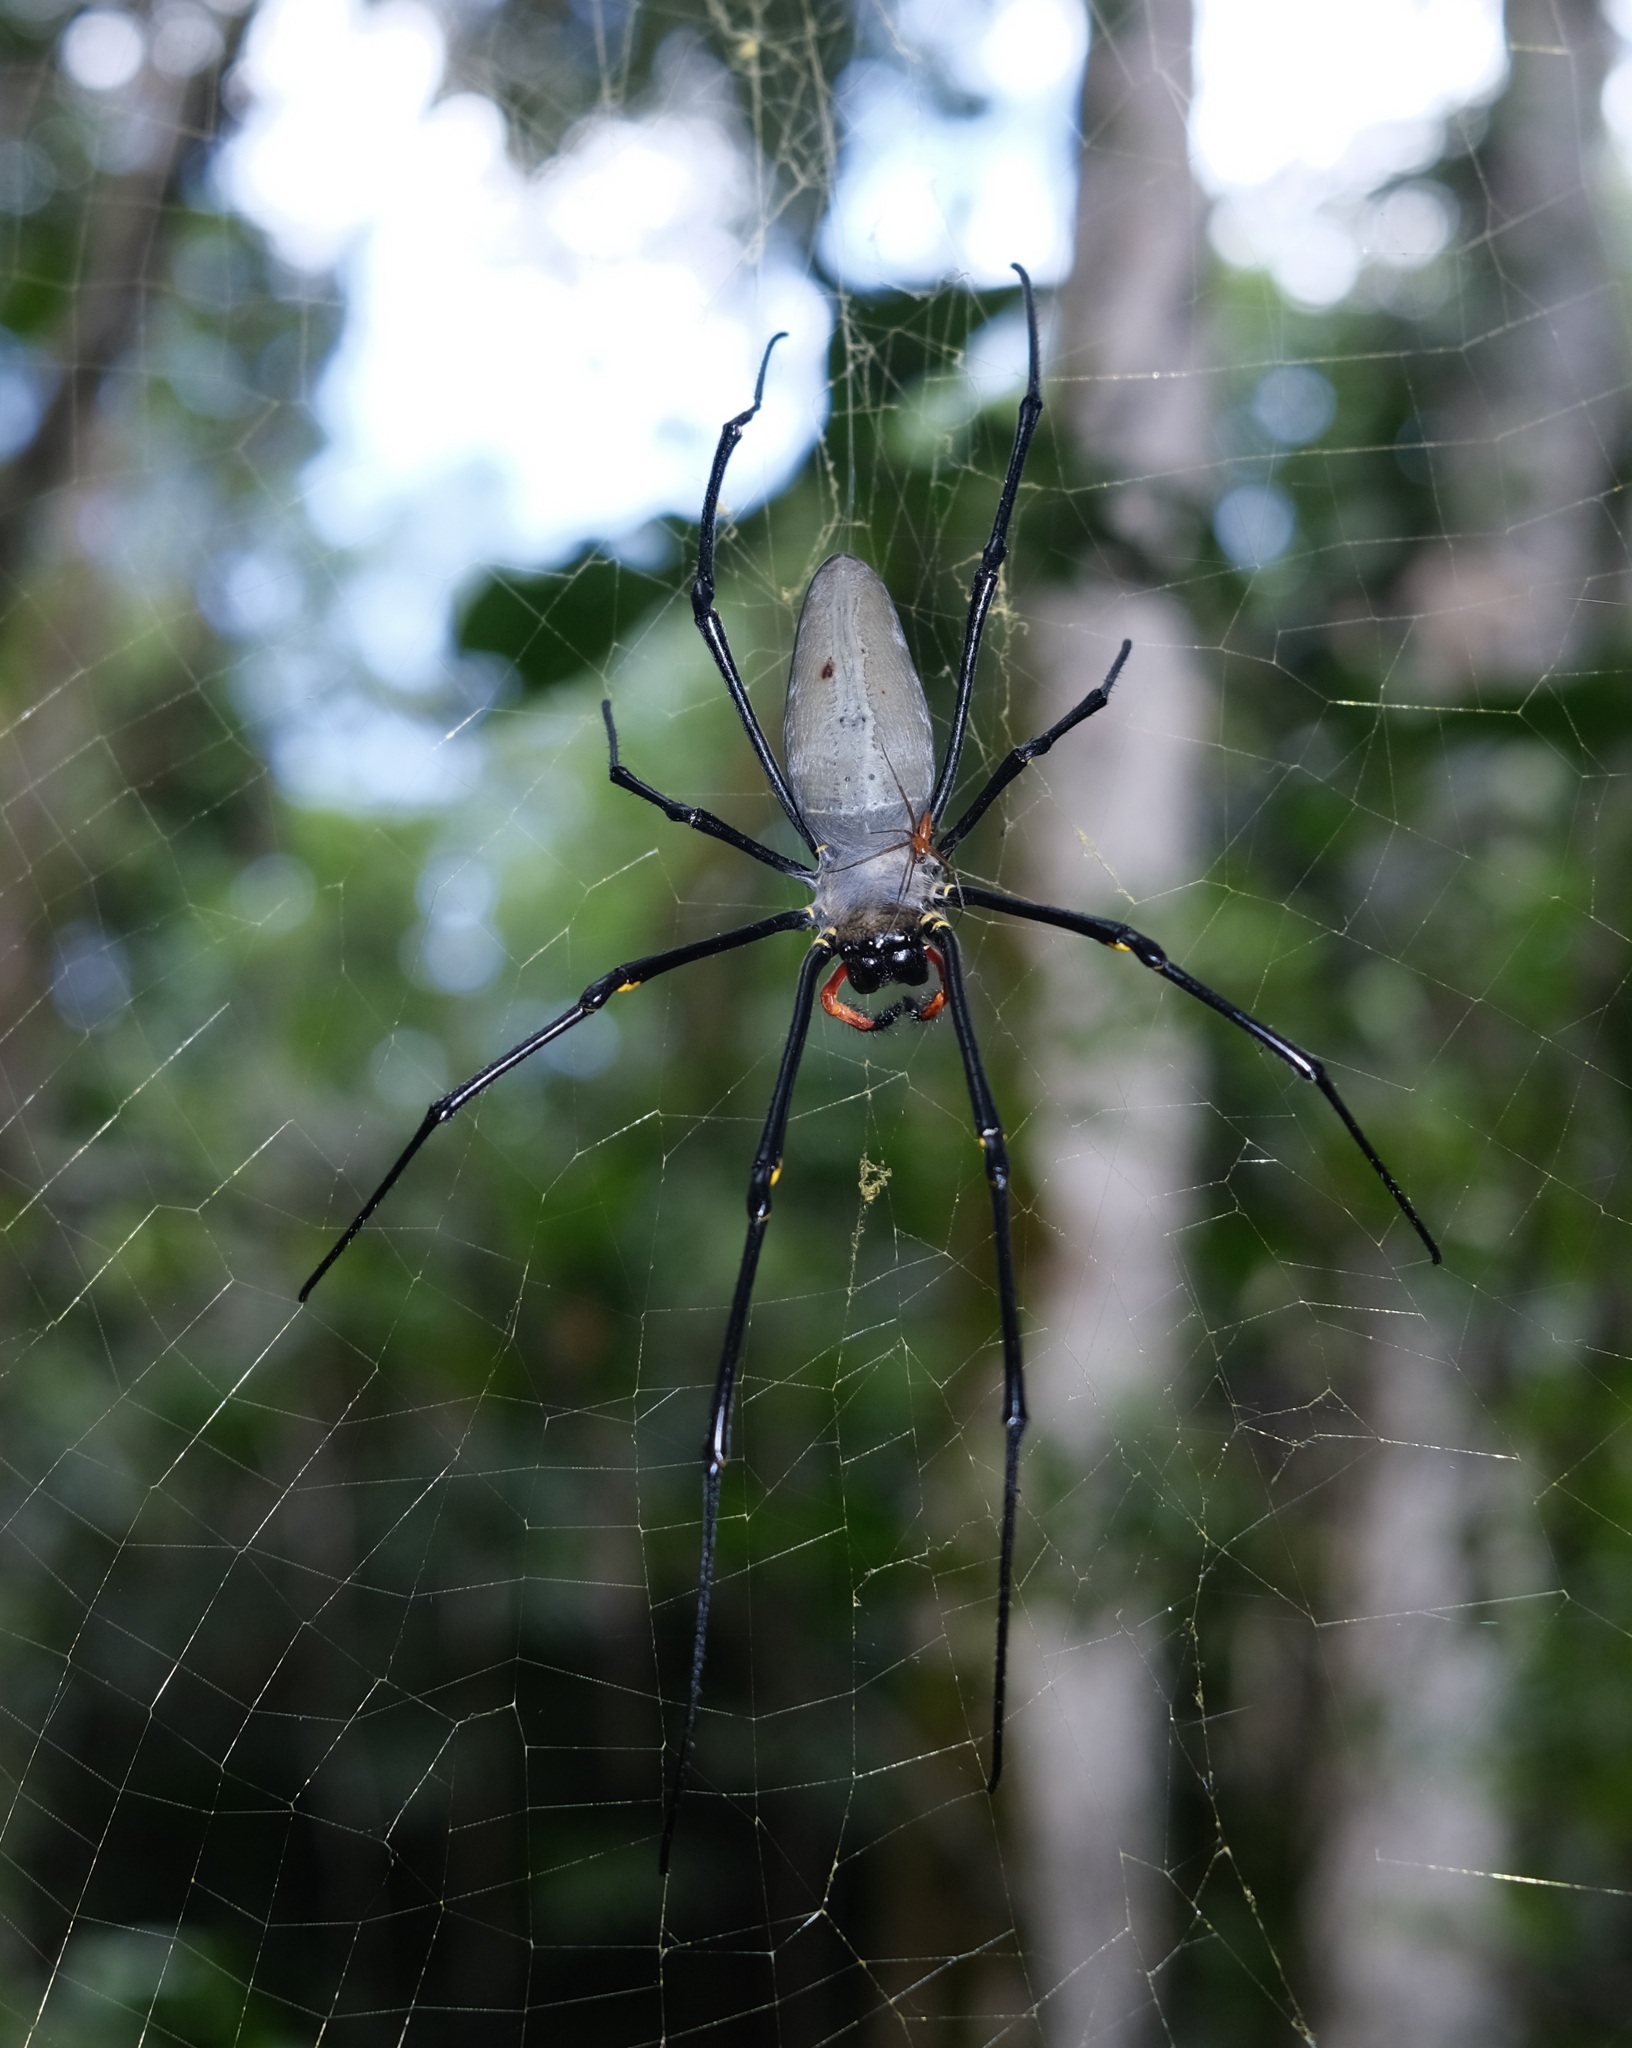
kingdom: Animalia
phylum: Arthropoda
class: Arachnida
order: Araneae
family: Araneidae
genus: Nephila
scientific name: Nephila pilipes
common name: Giant golden orb weaver
